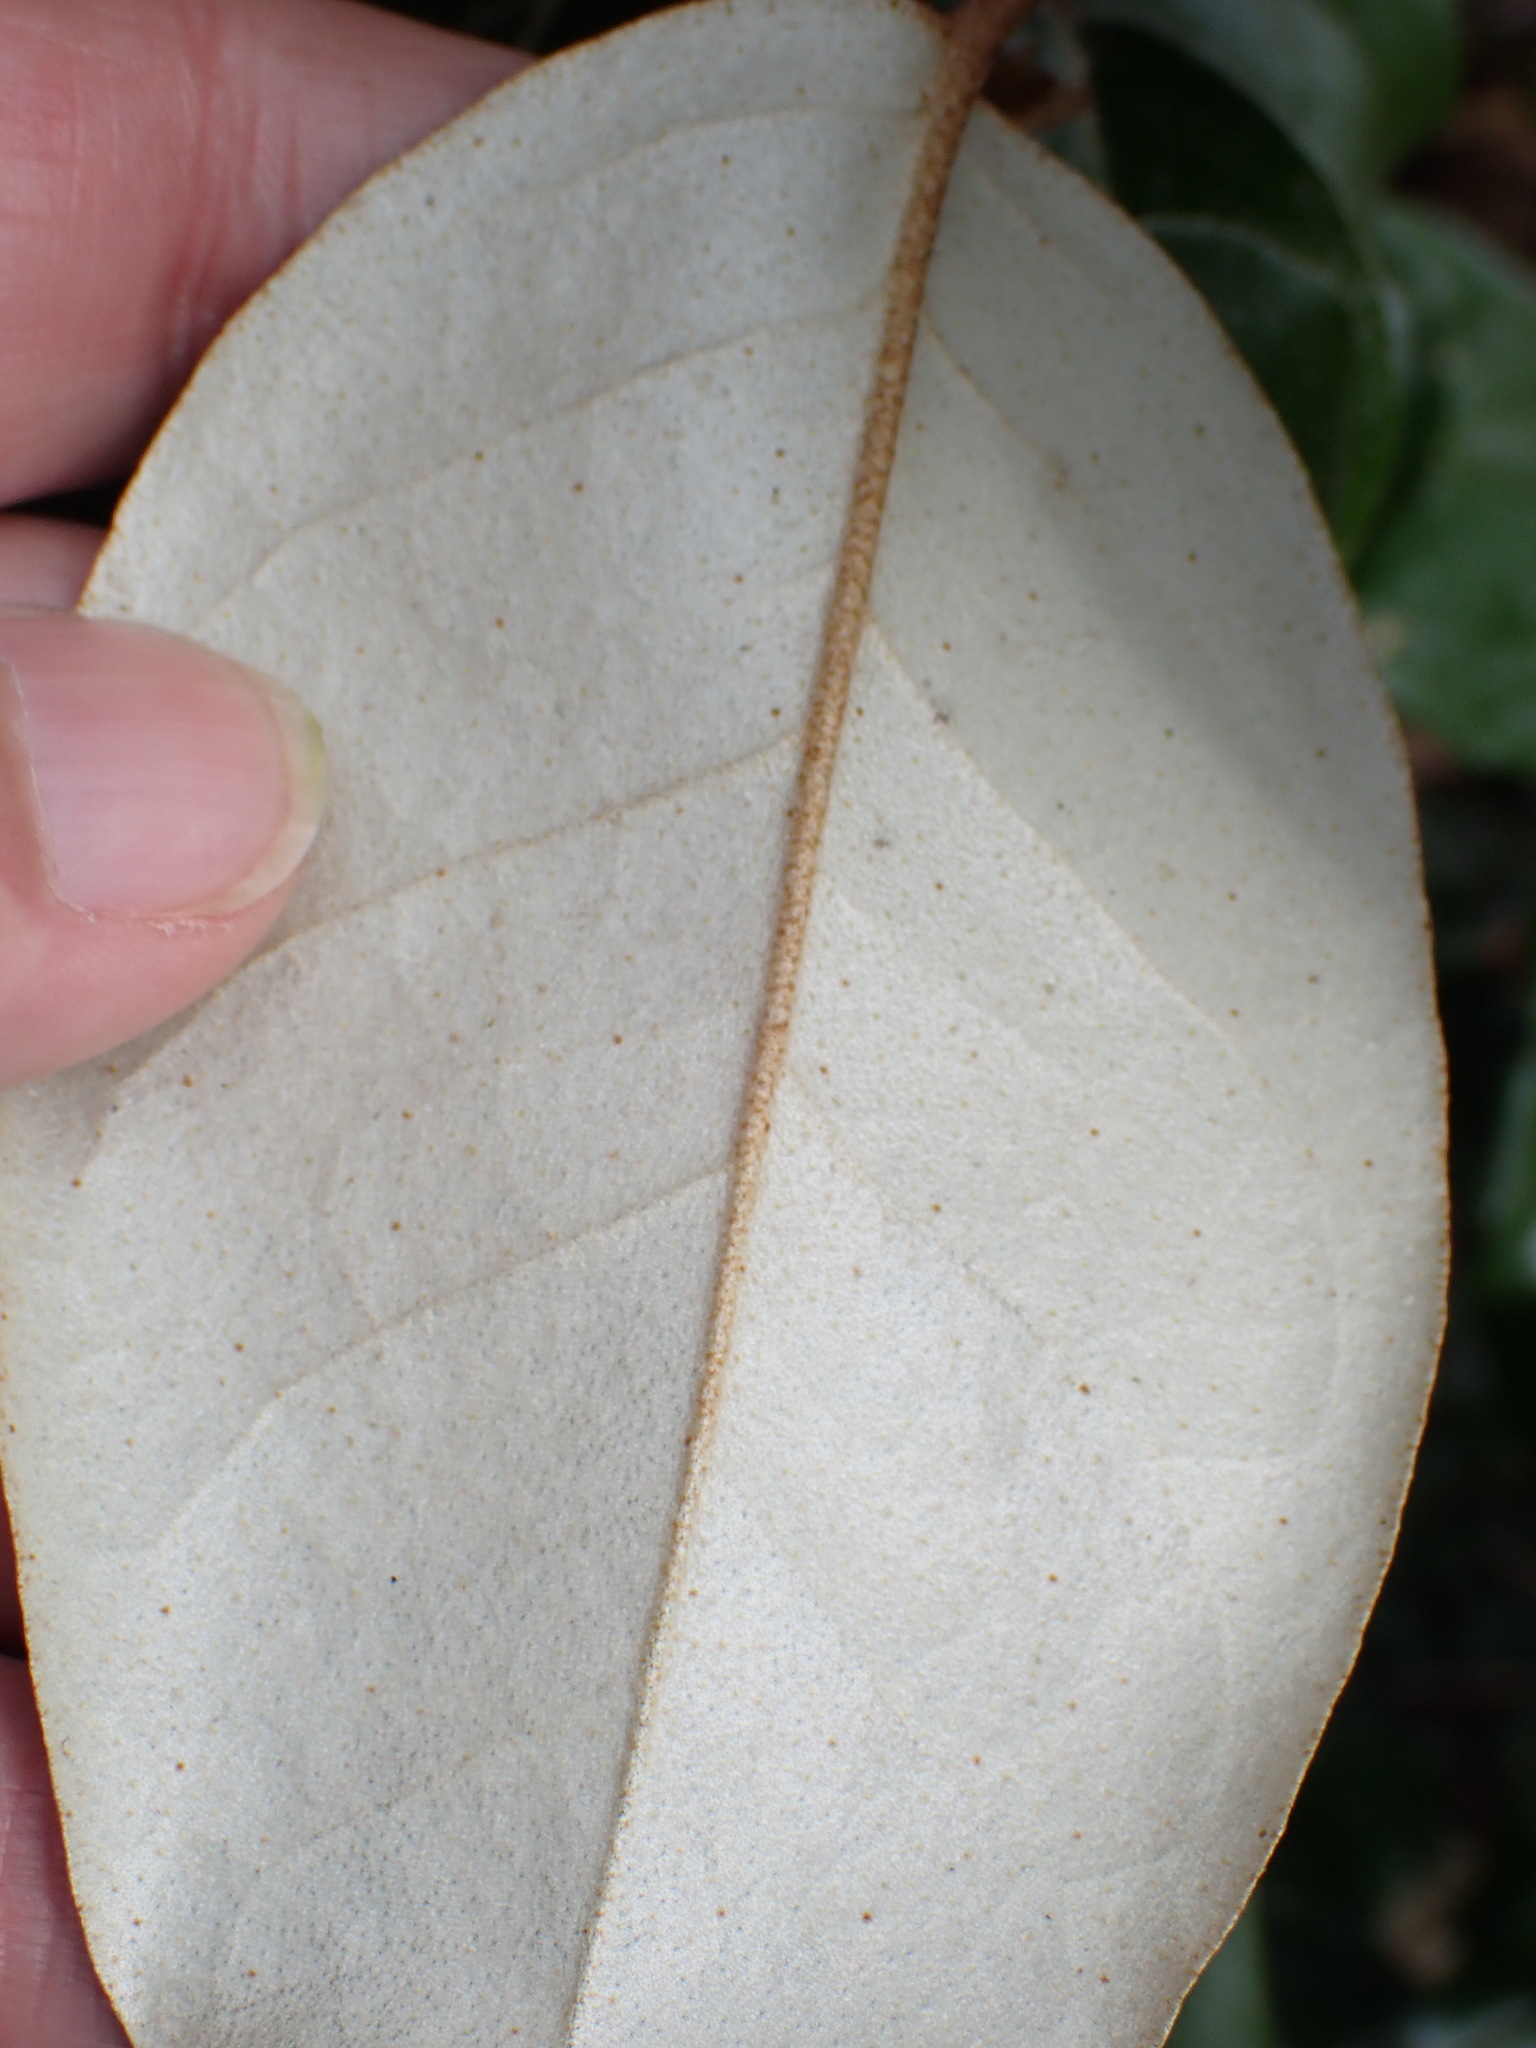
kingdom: Plantae
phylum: Tracheophyta
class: Magnoliopsida
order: Rosales
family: Elaeagnaceae
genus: Elaeagnus
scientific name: Elaeagnus submacrophylla
